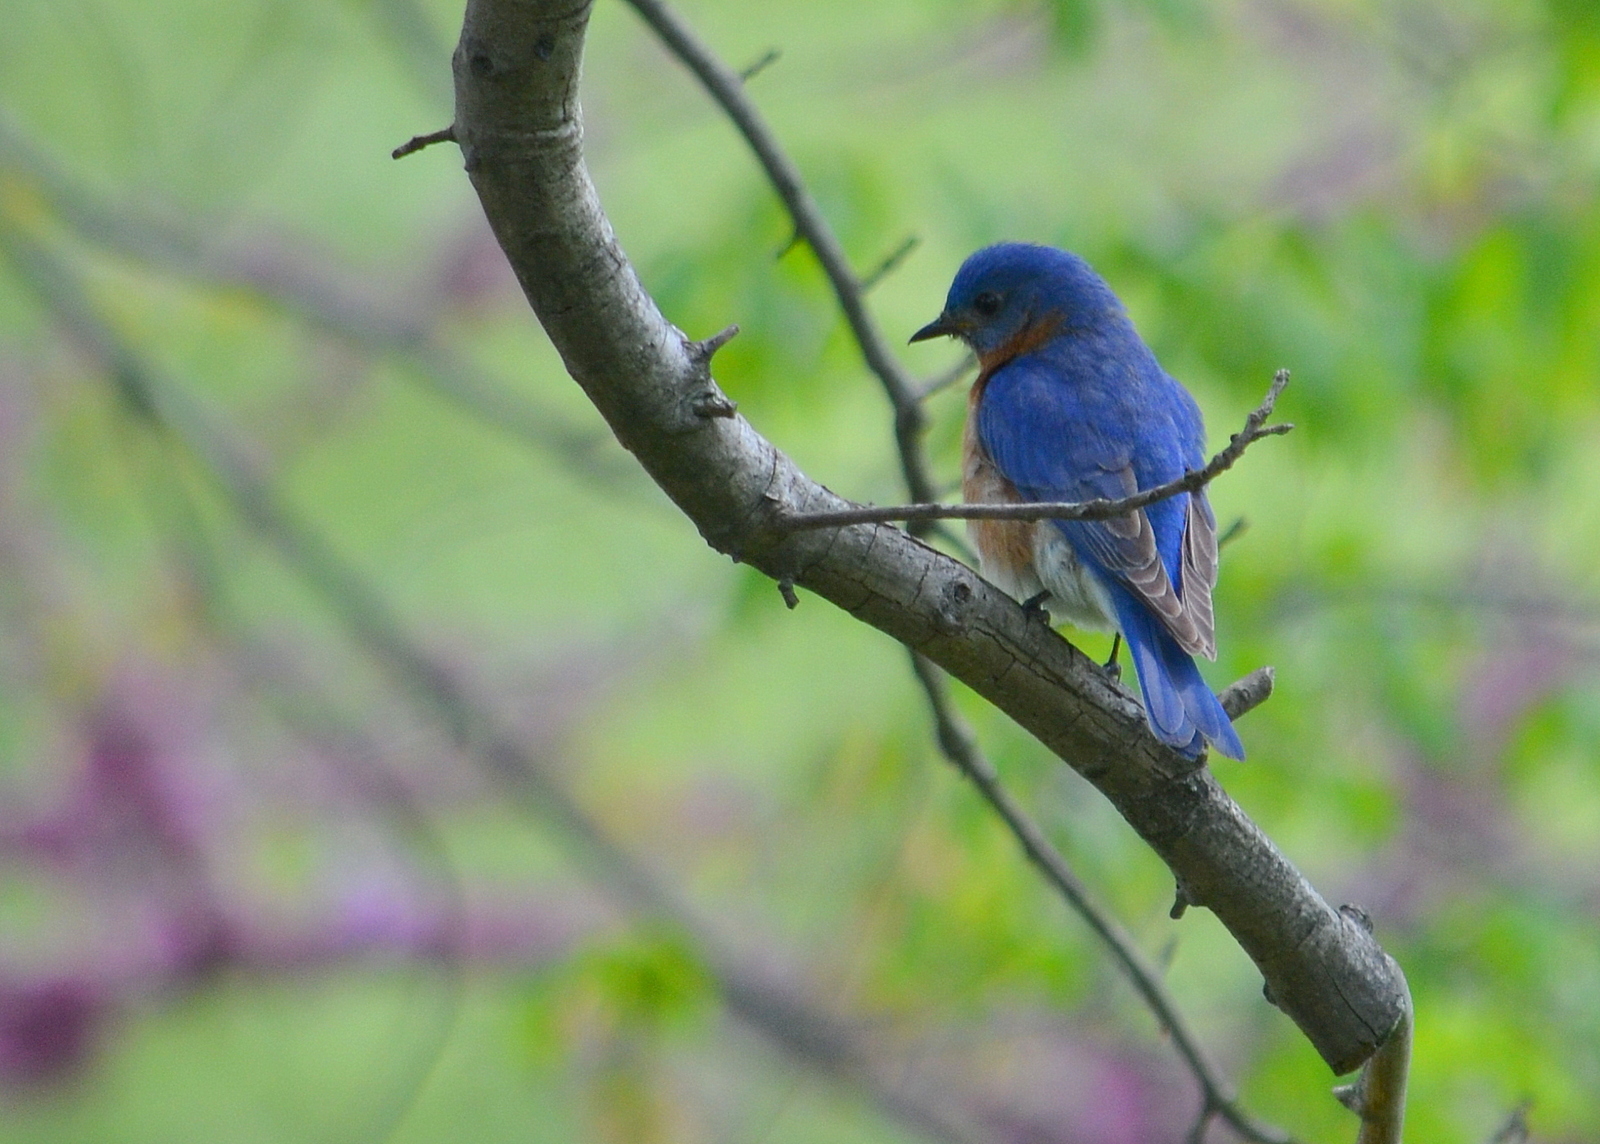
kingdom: Animalia
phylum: Chordata
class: Aves
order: Passeriformes
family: Turdidae
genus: Sialia
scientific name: Sialia sialis
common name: Eastern bluebird
